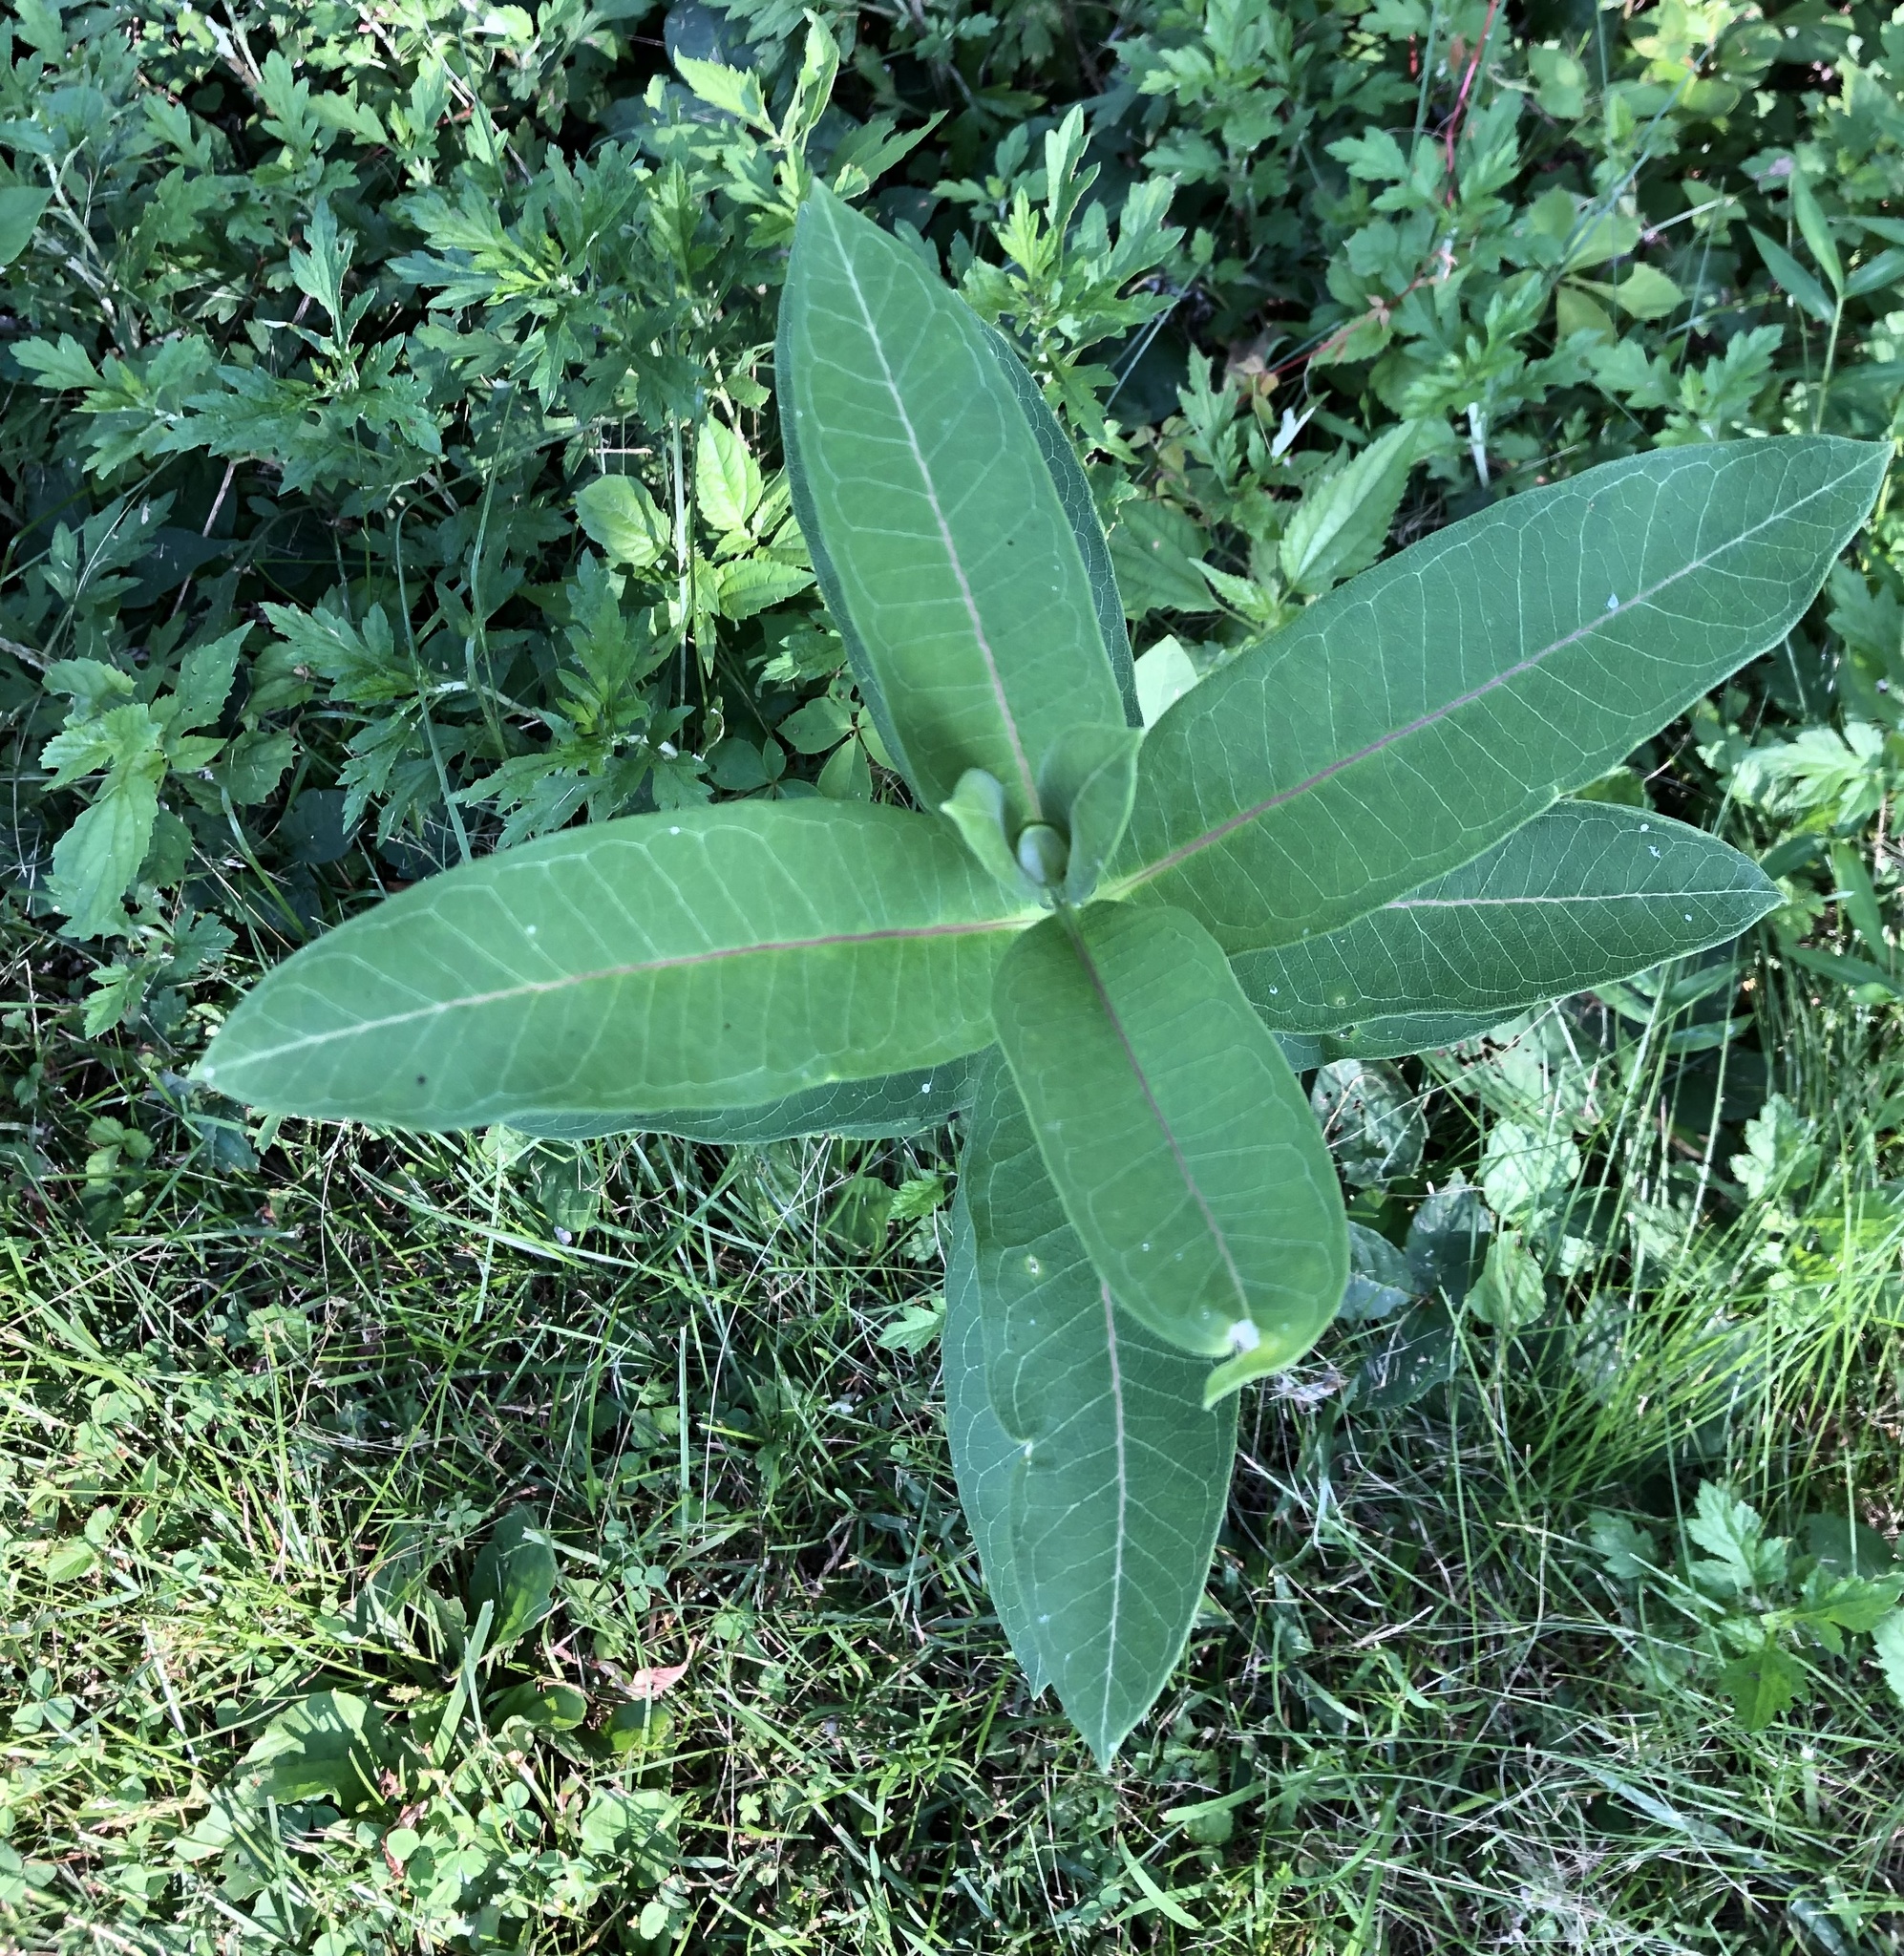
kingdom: Plantae
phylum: Tracheophyta
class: Magnoliopsida
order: Gentianales
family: Apocynaceae
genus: Asclepias
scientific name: Asclepias syriaca
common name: Common milkweed
